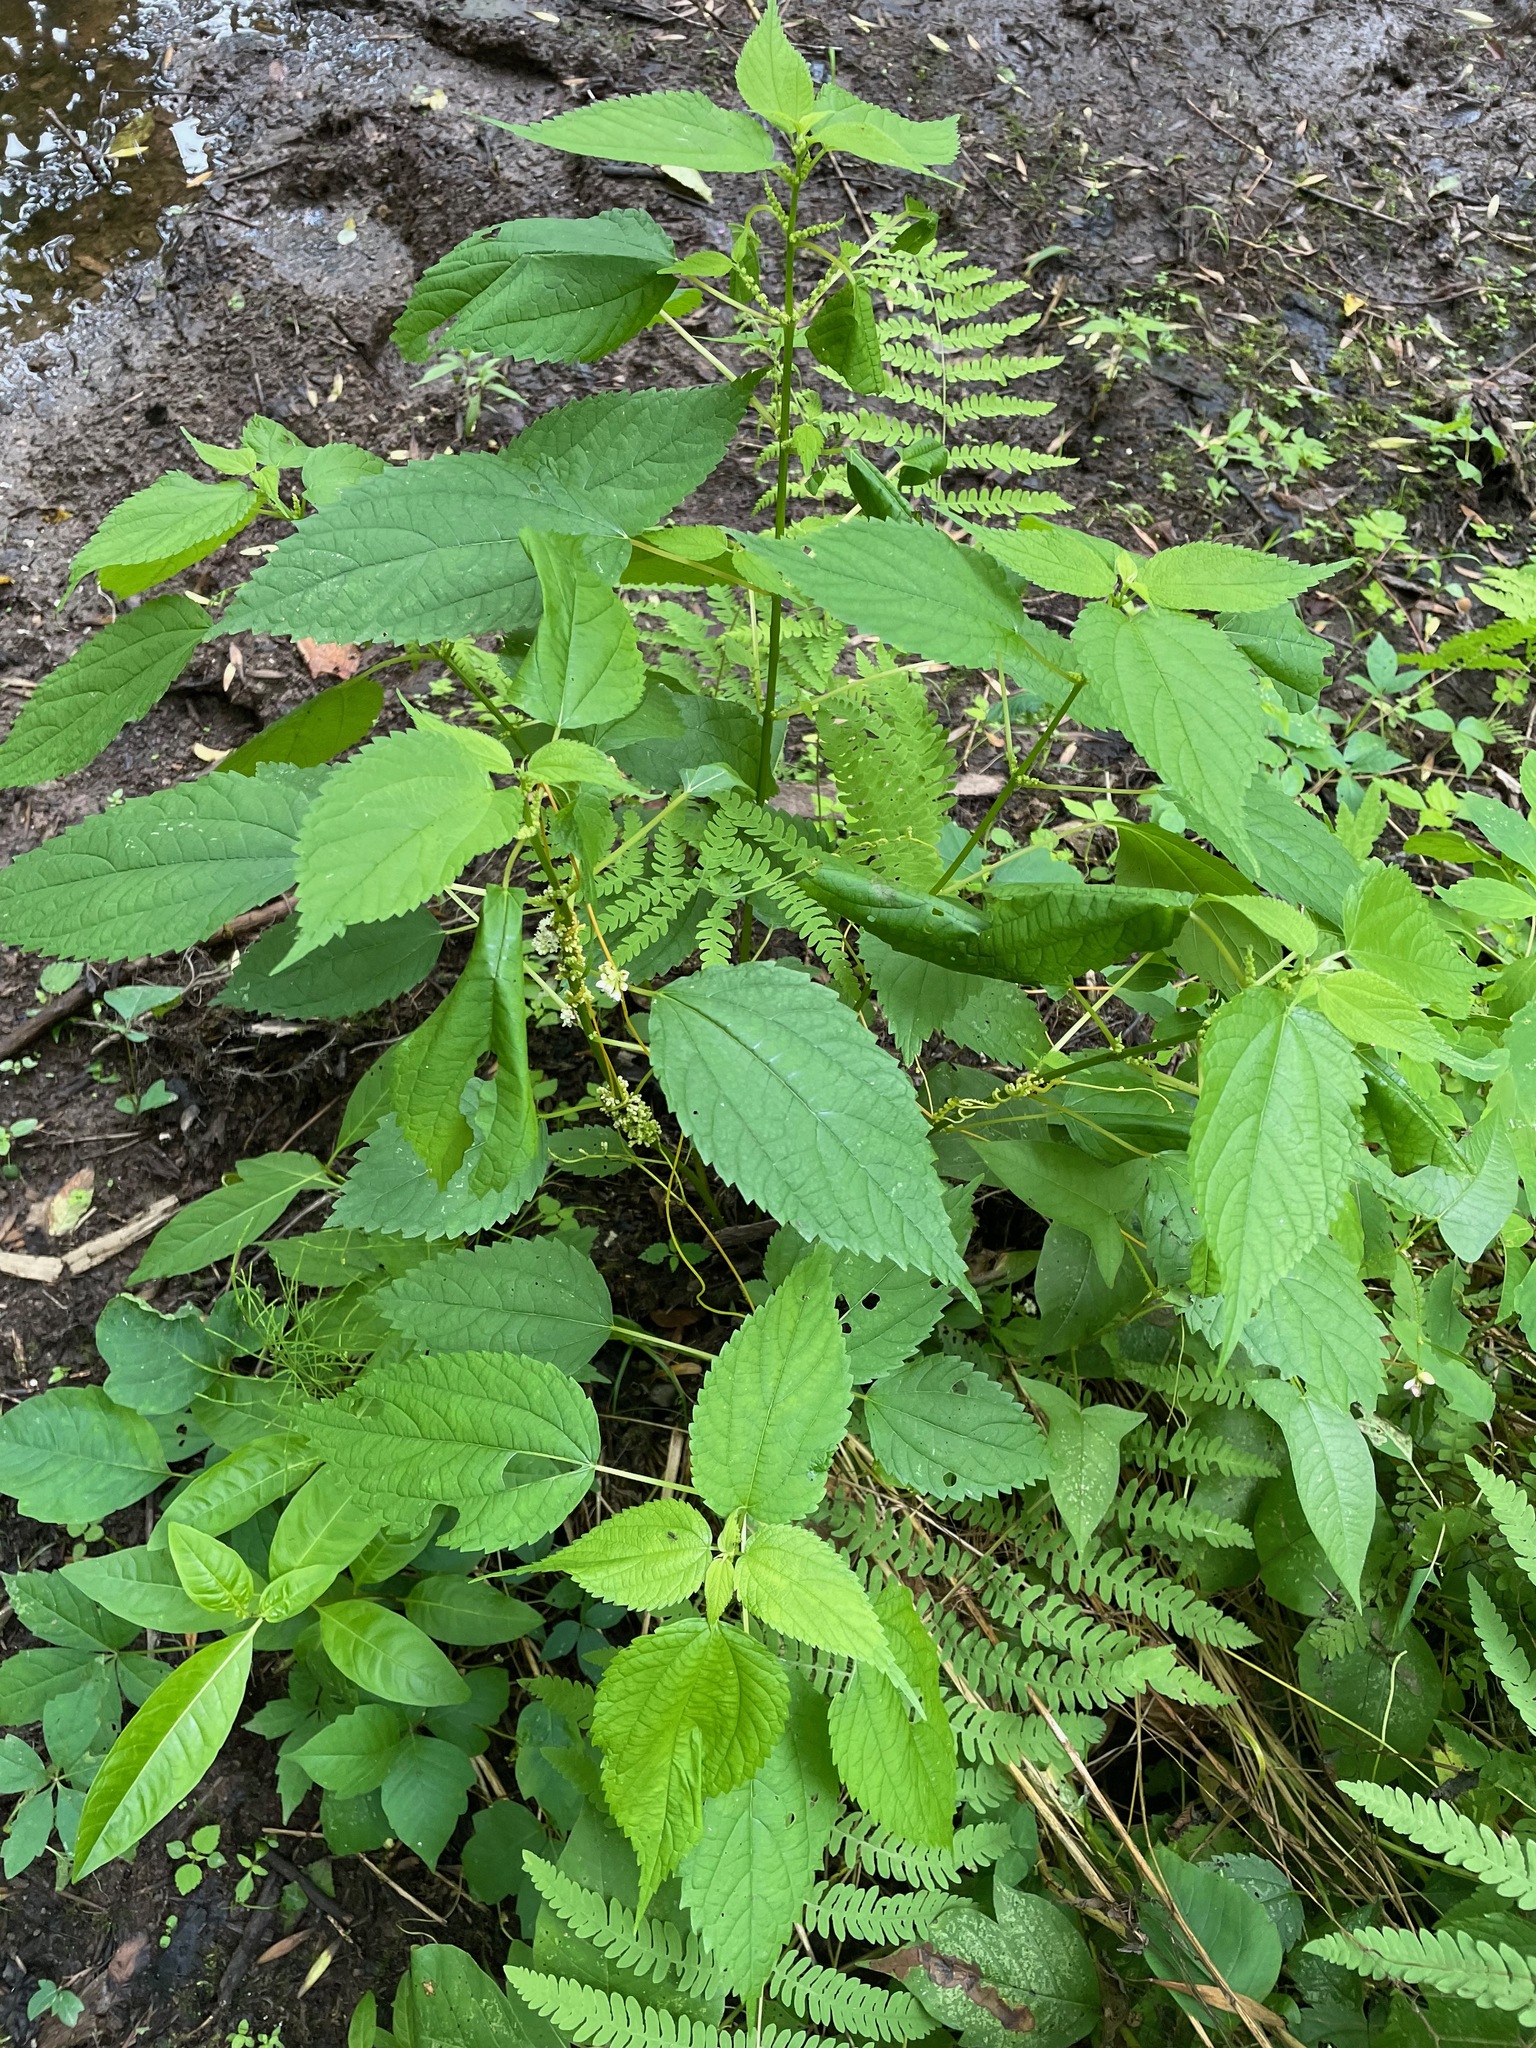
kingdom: Plantae
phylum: Tracheophyta
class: Magnoliopsida
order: Rosales
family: Urticaceae
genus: Boehmeria
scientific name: Boehmeria cylindrica
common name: Bog-hemp
